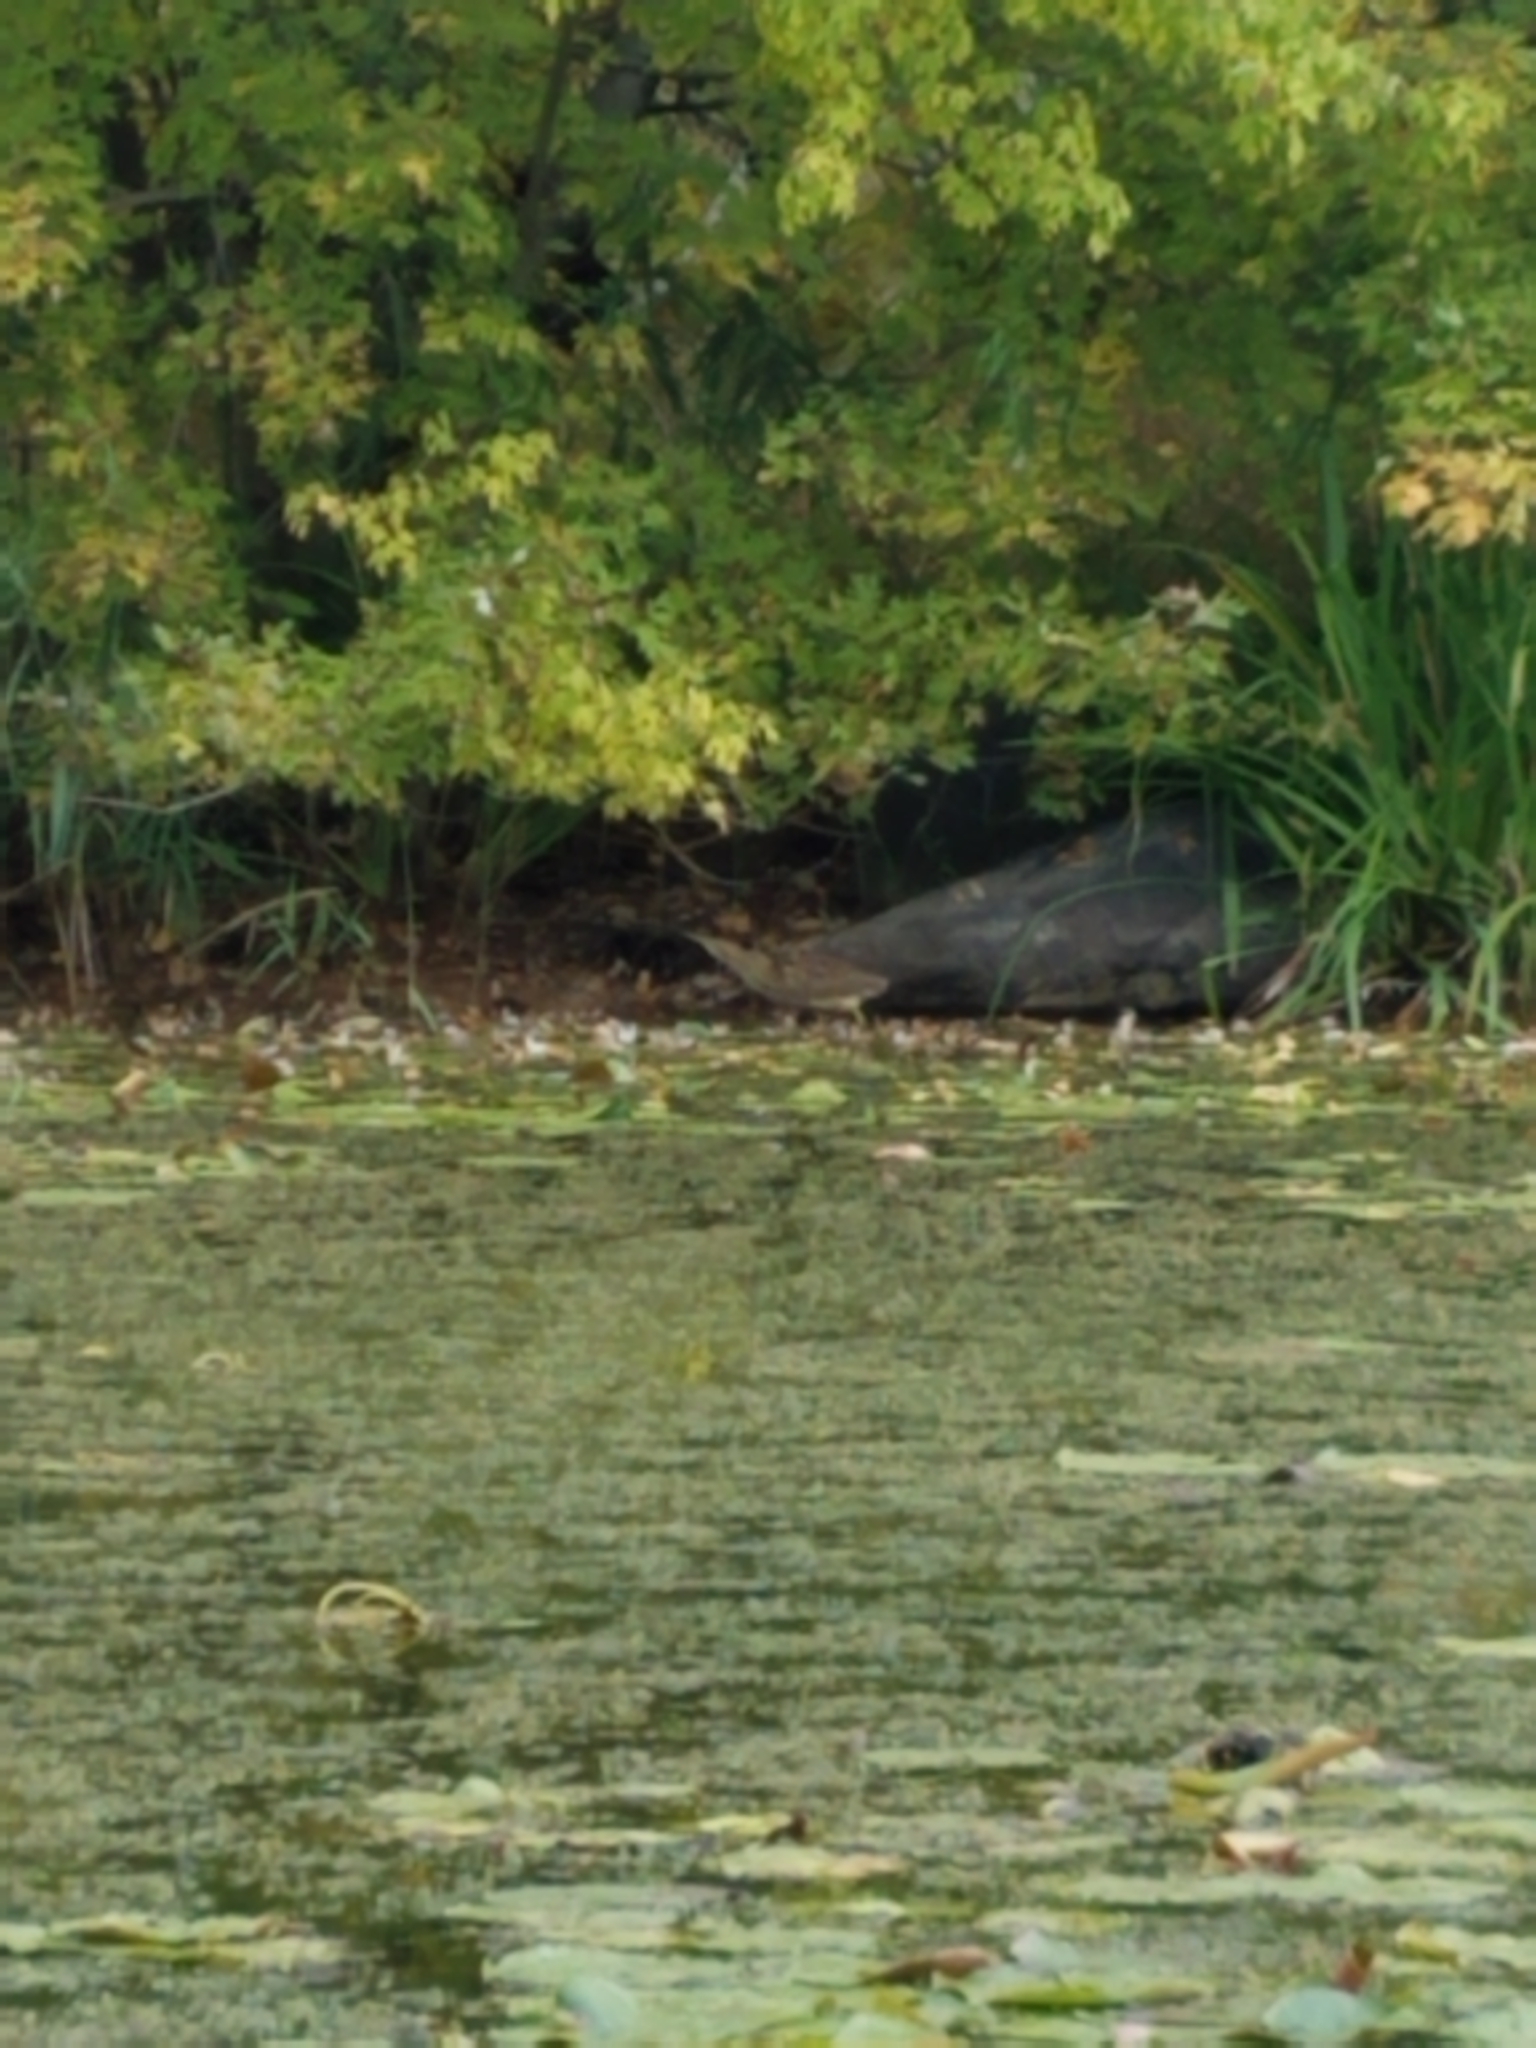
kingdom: Animalia
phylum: Chordata
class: Aves
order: Pelecaniformes
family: Ardeidae
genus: Botaurus
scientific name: Botaurus lentiginosus
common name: American bittern
